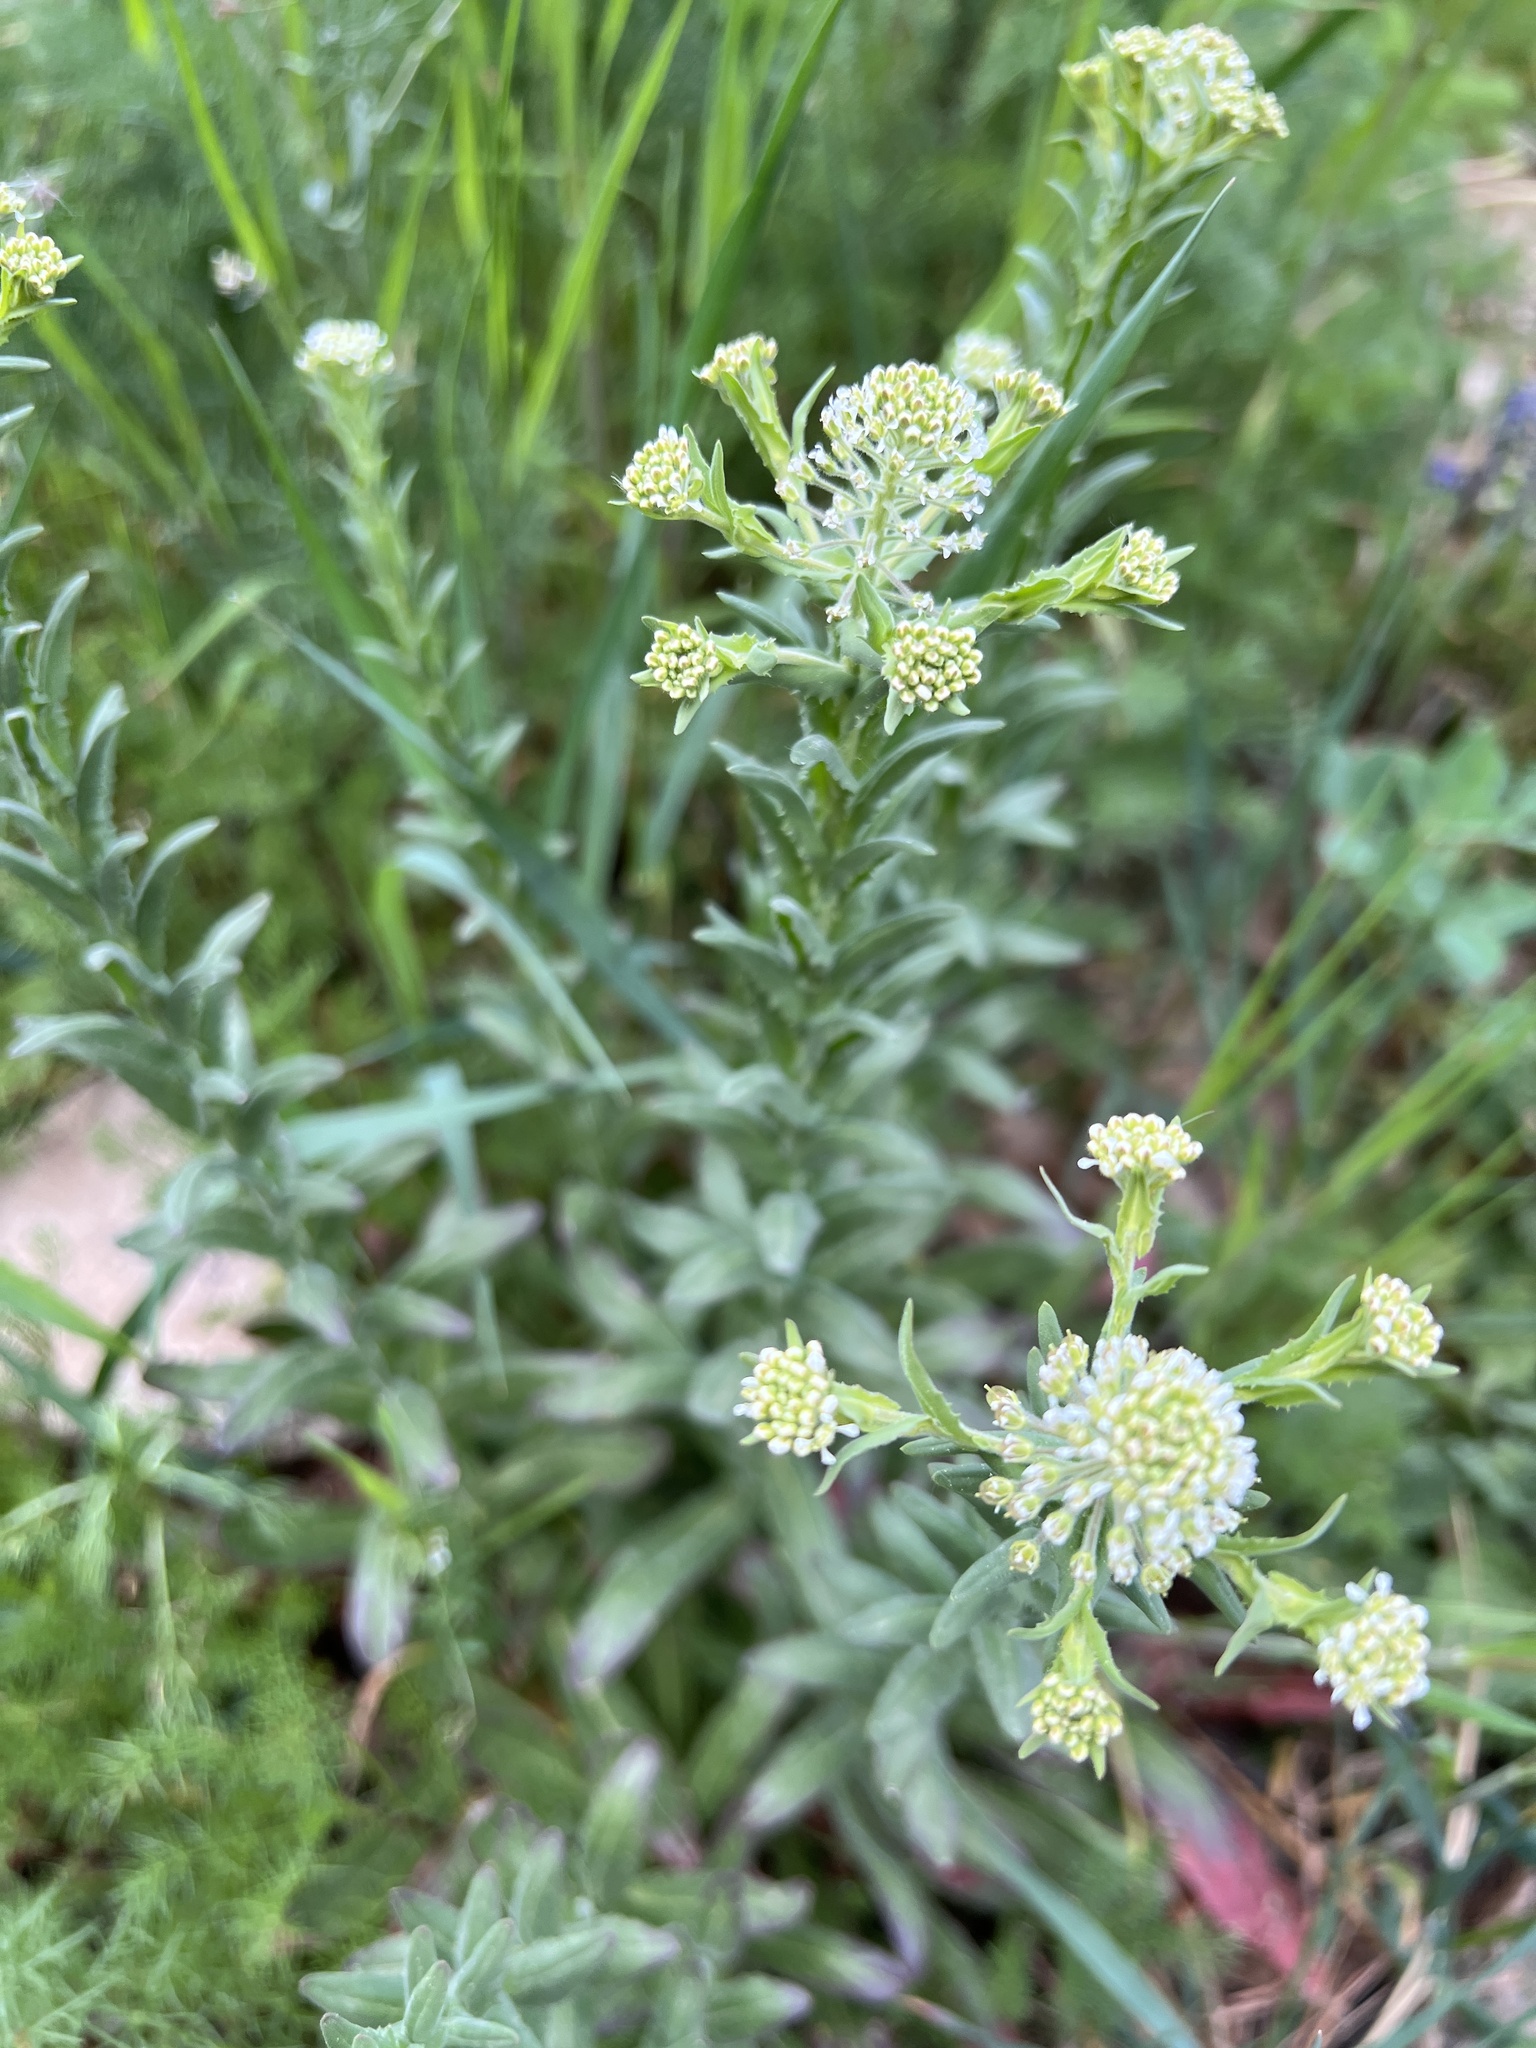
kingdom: Plantae
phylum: Tracheophyta
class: Magnoliopsida
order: Brassicales
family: Brassicaceae
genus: Lepidium
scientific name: Lepidium campestre
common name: Field pepperwort
